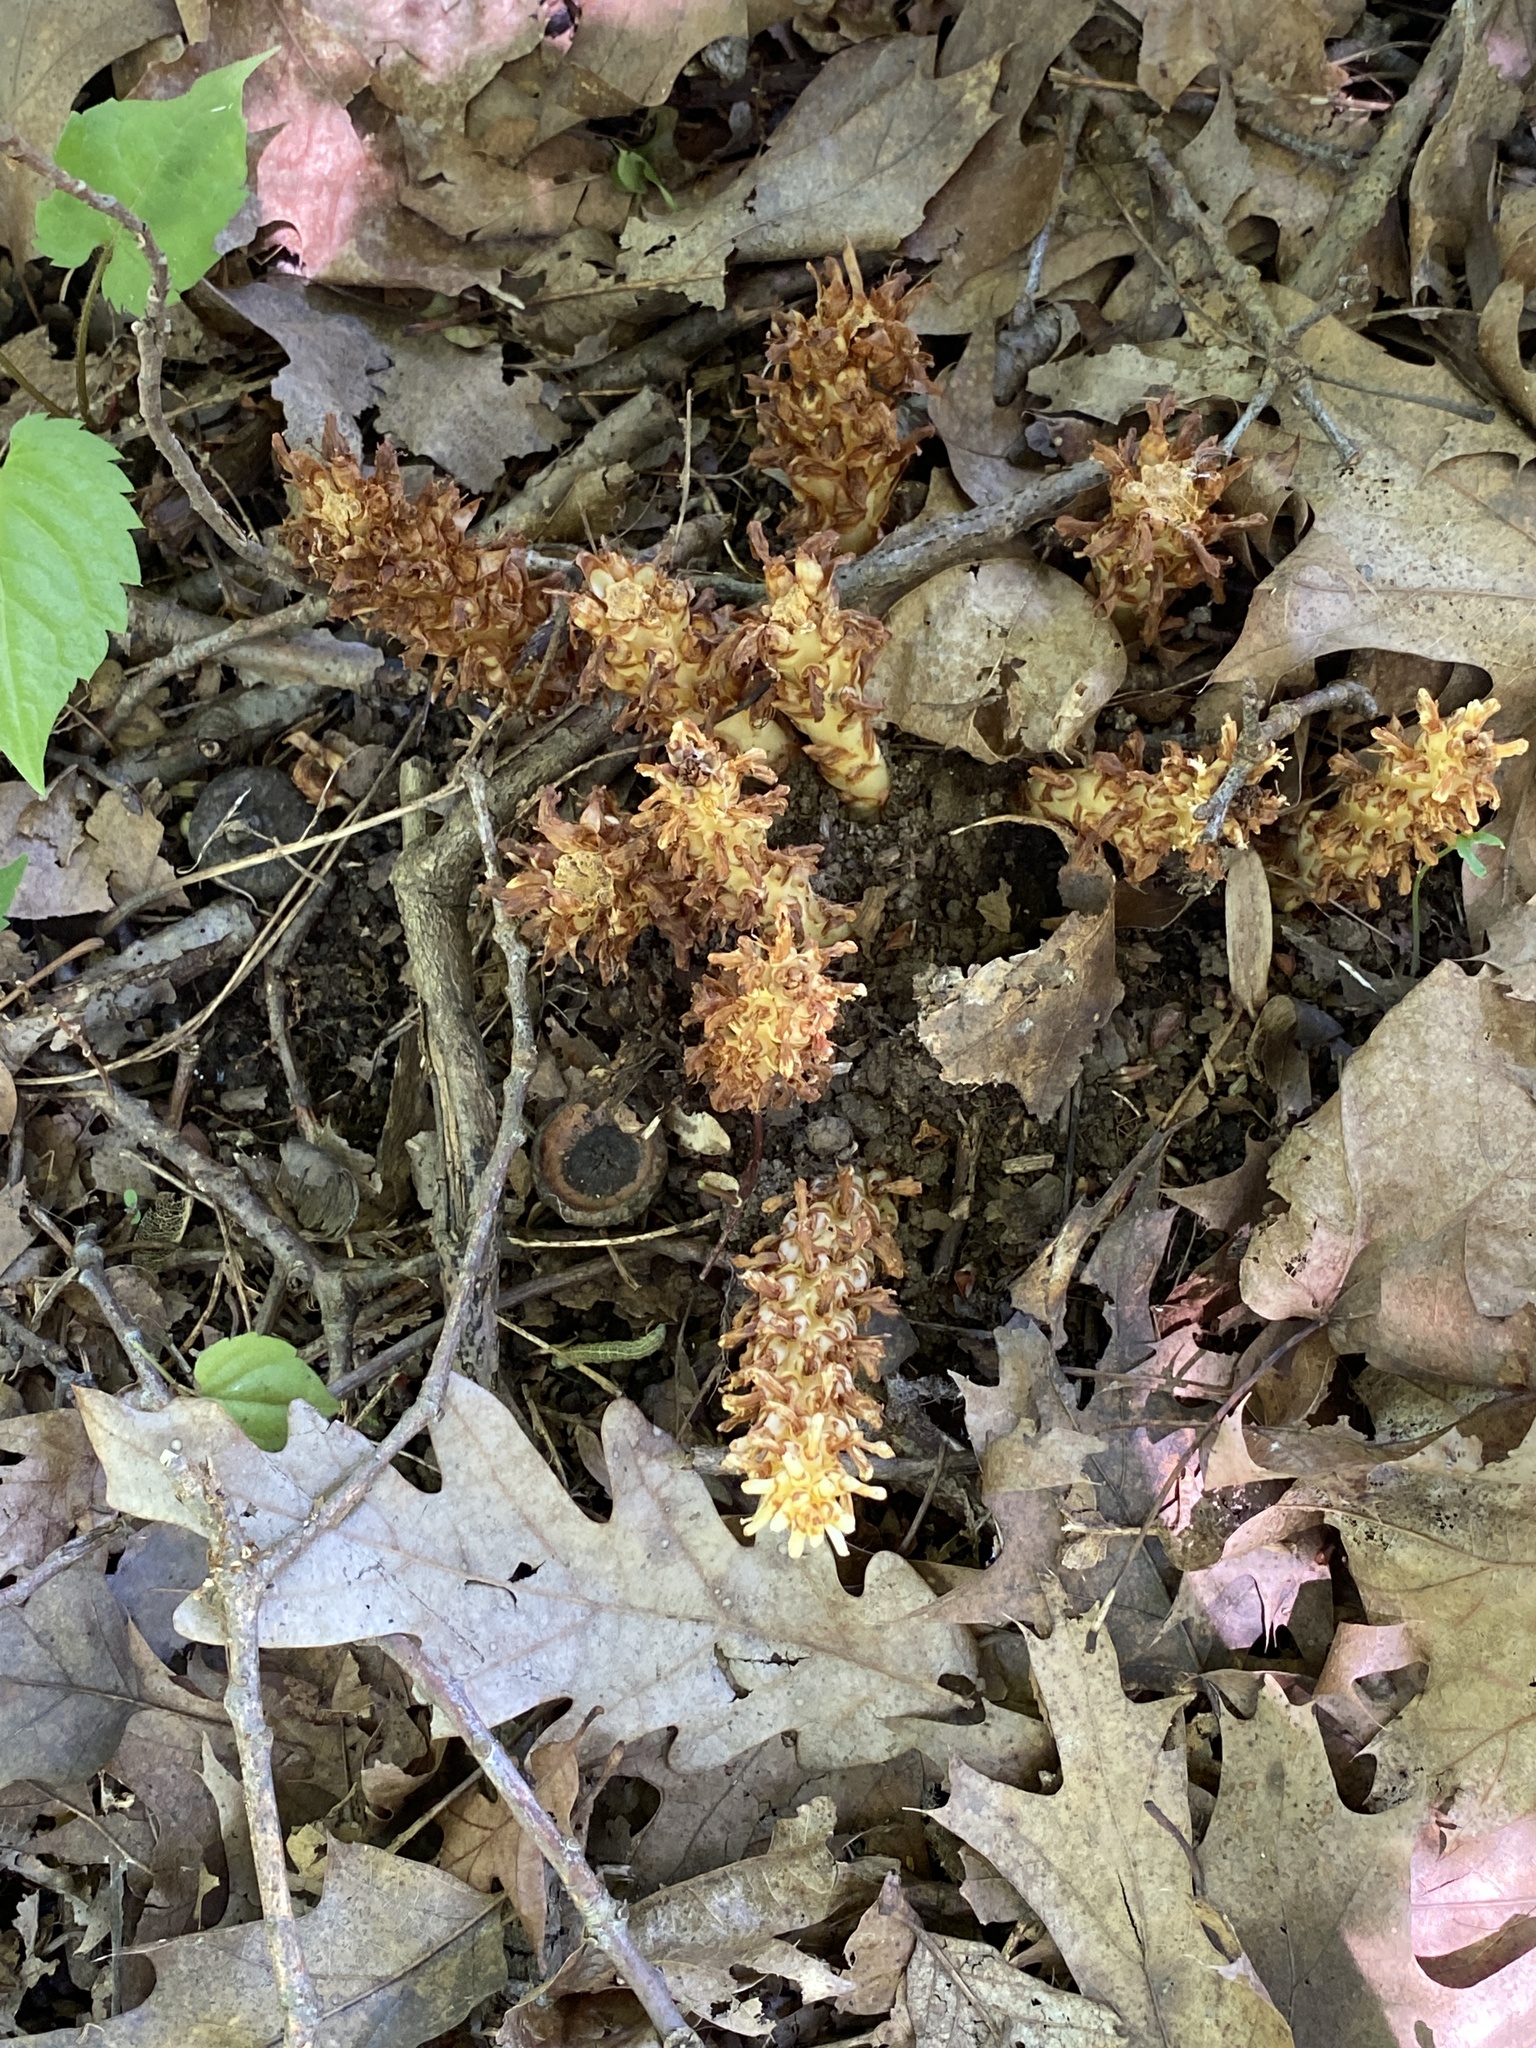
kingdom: Plantae
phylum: Tracheophyta
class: Magnoliopsida
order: Lamiales
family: Orobanchaceae
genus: Conopholis
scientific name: Conopholis americana
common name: American cancer-root
